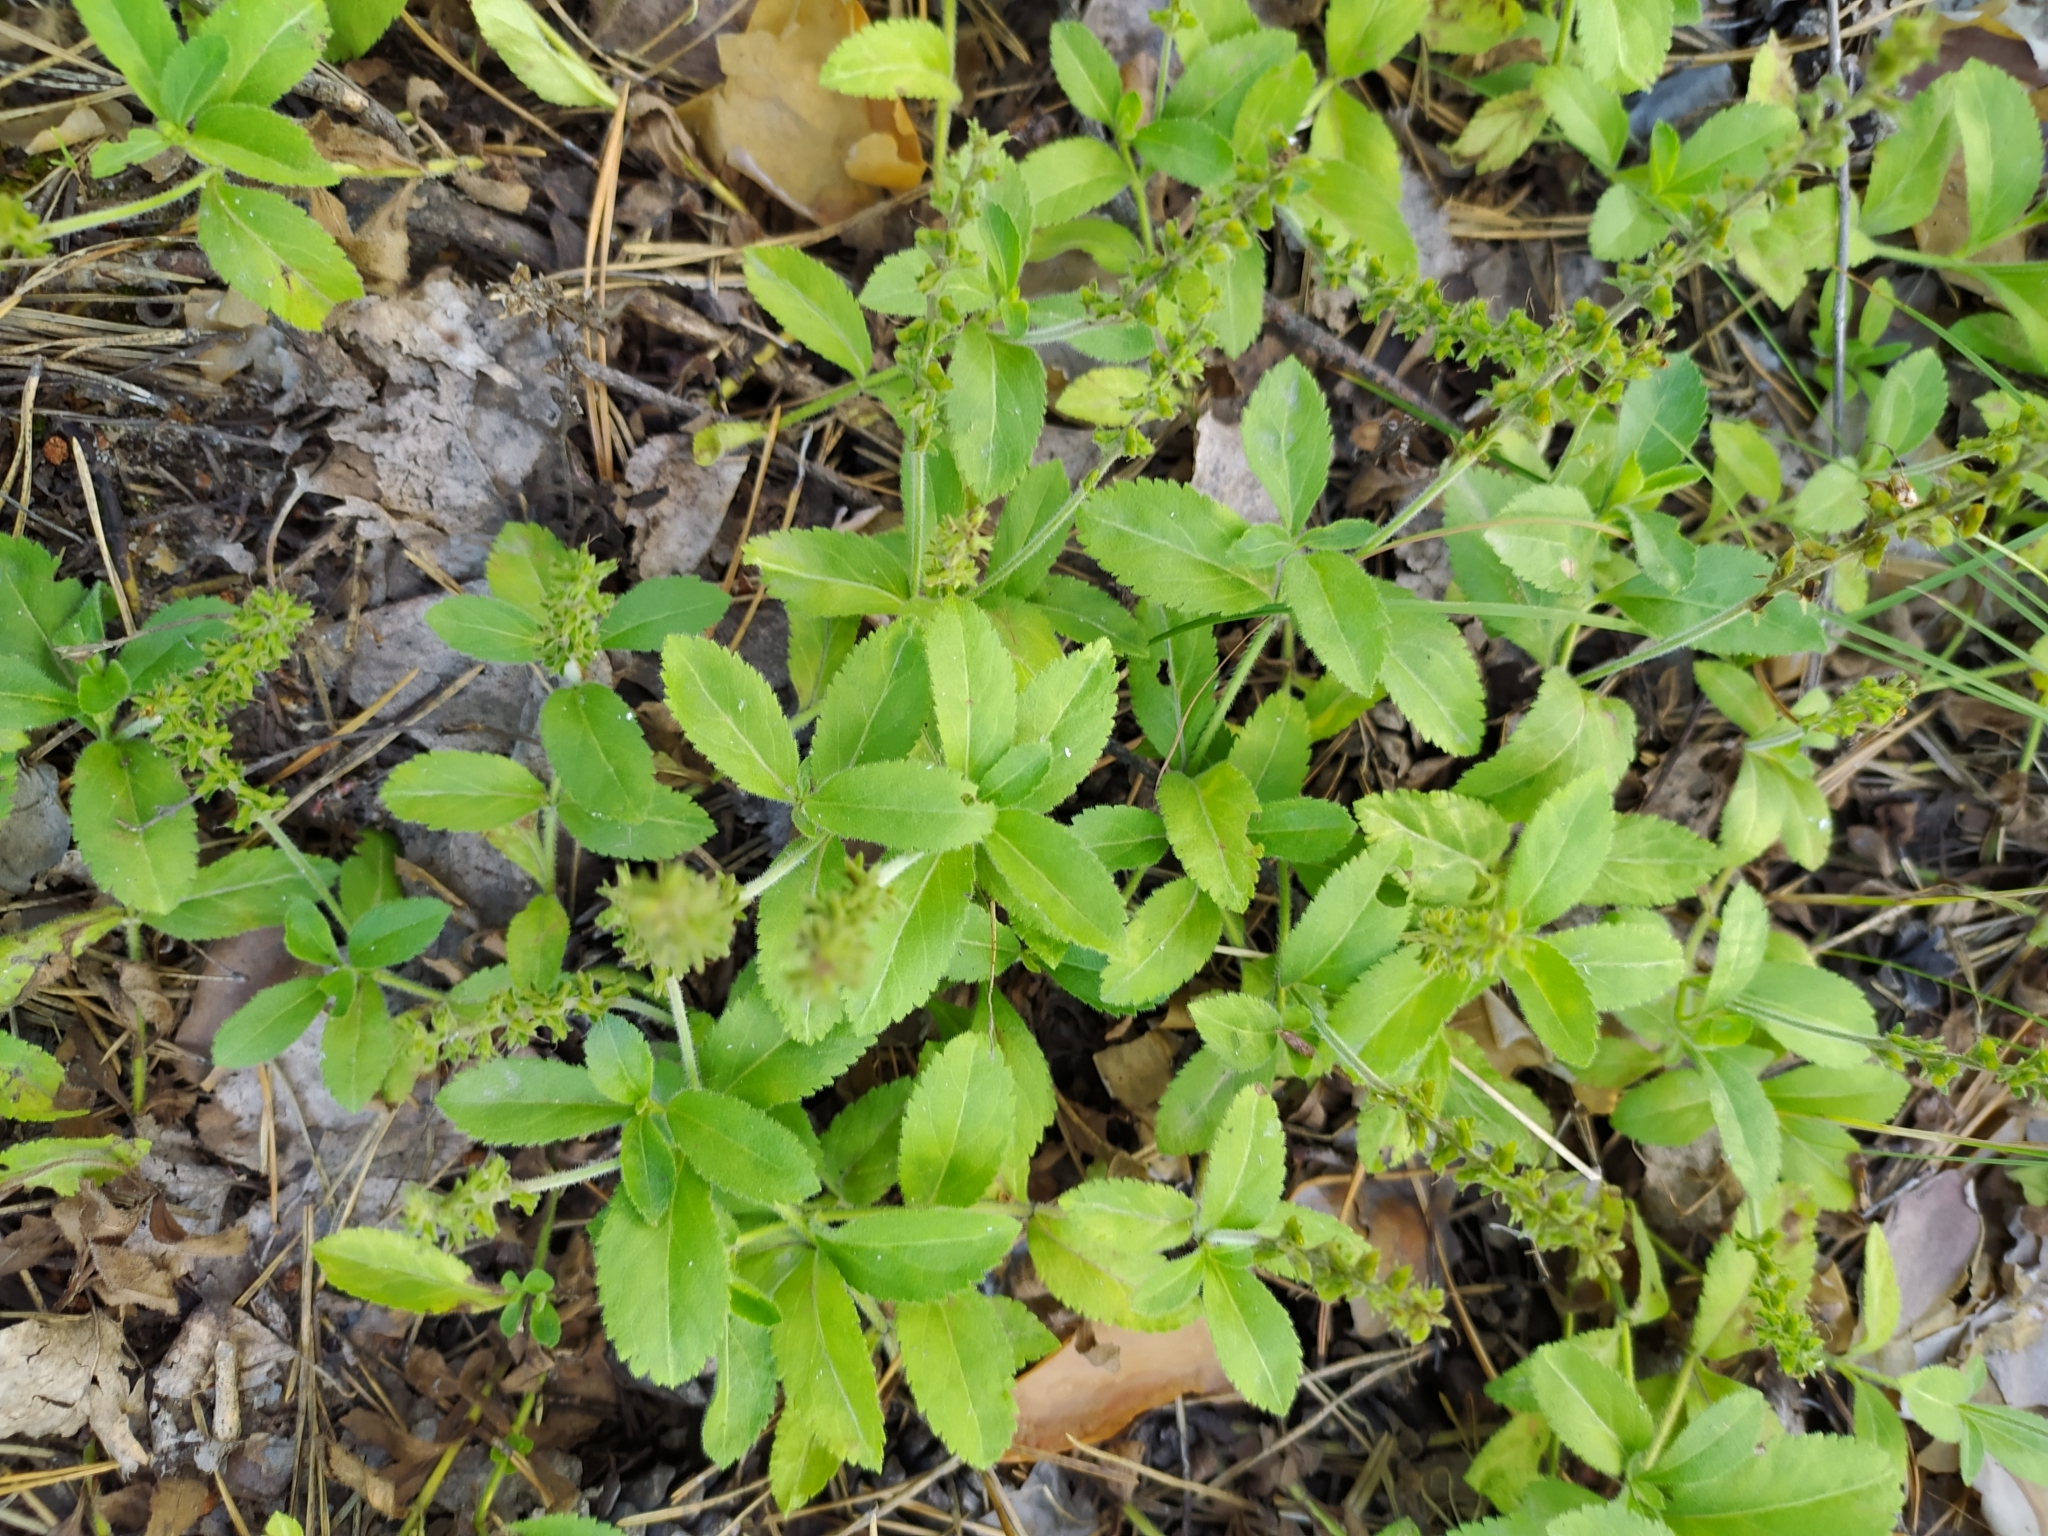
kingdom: Plantae
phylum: Tracheophyta
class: Magnoliopsida
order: Lamiales
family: Plantaginaceae
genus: Veronica
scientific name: Veronica officinalis
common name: Common speedwell
